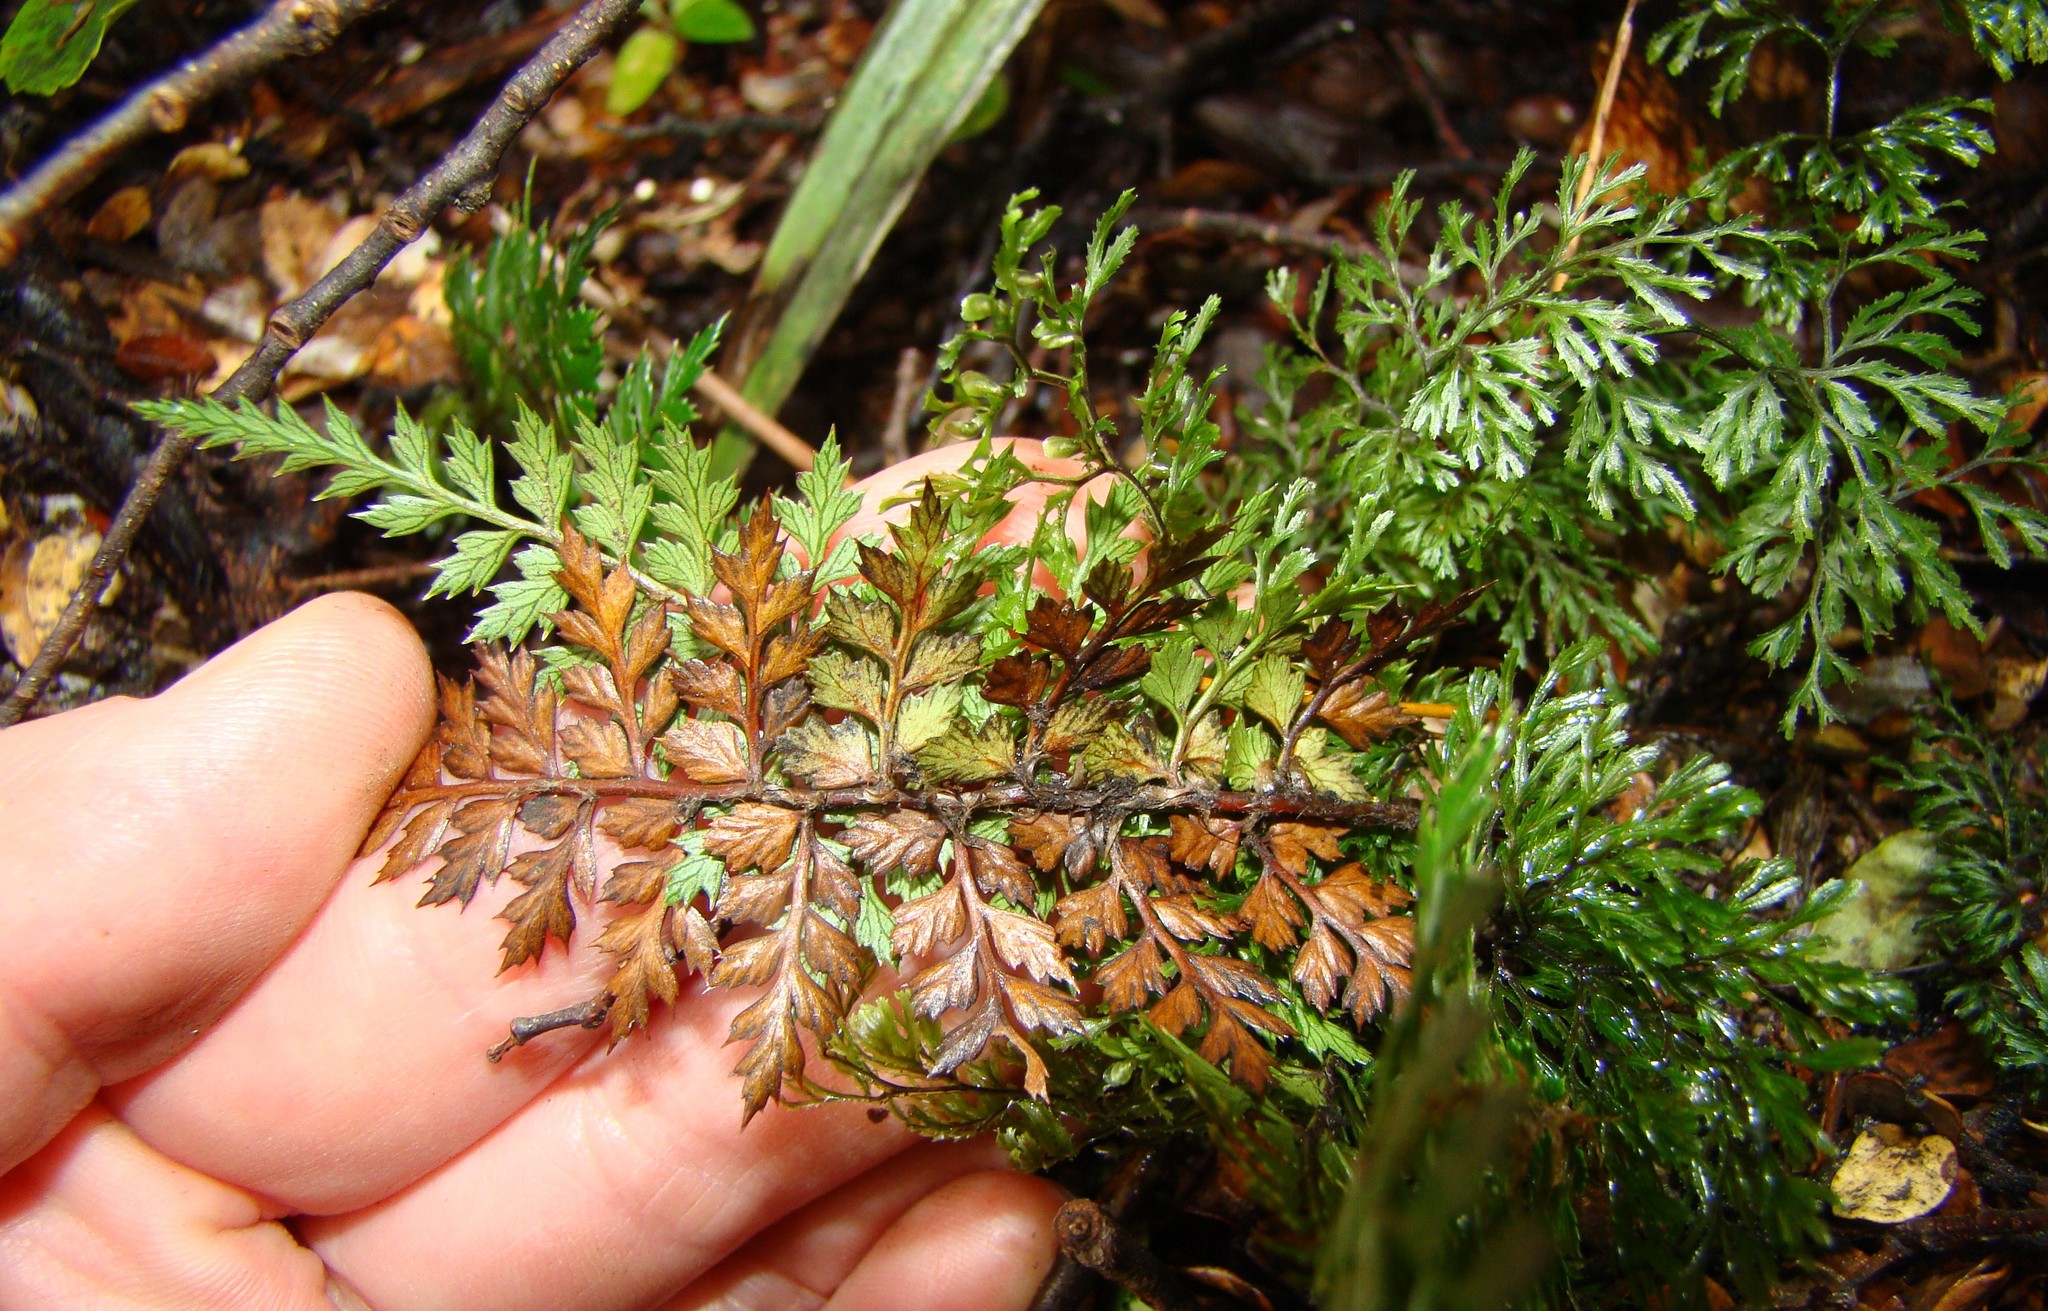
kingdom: Plantae
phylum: Tracheophyta
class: Polypodiopsida
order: Polypodiales
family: Dryopteridaceae
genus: Polystichum
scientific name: Polystichum vestitum
